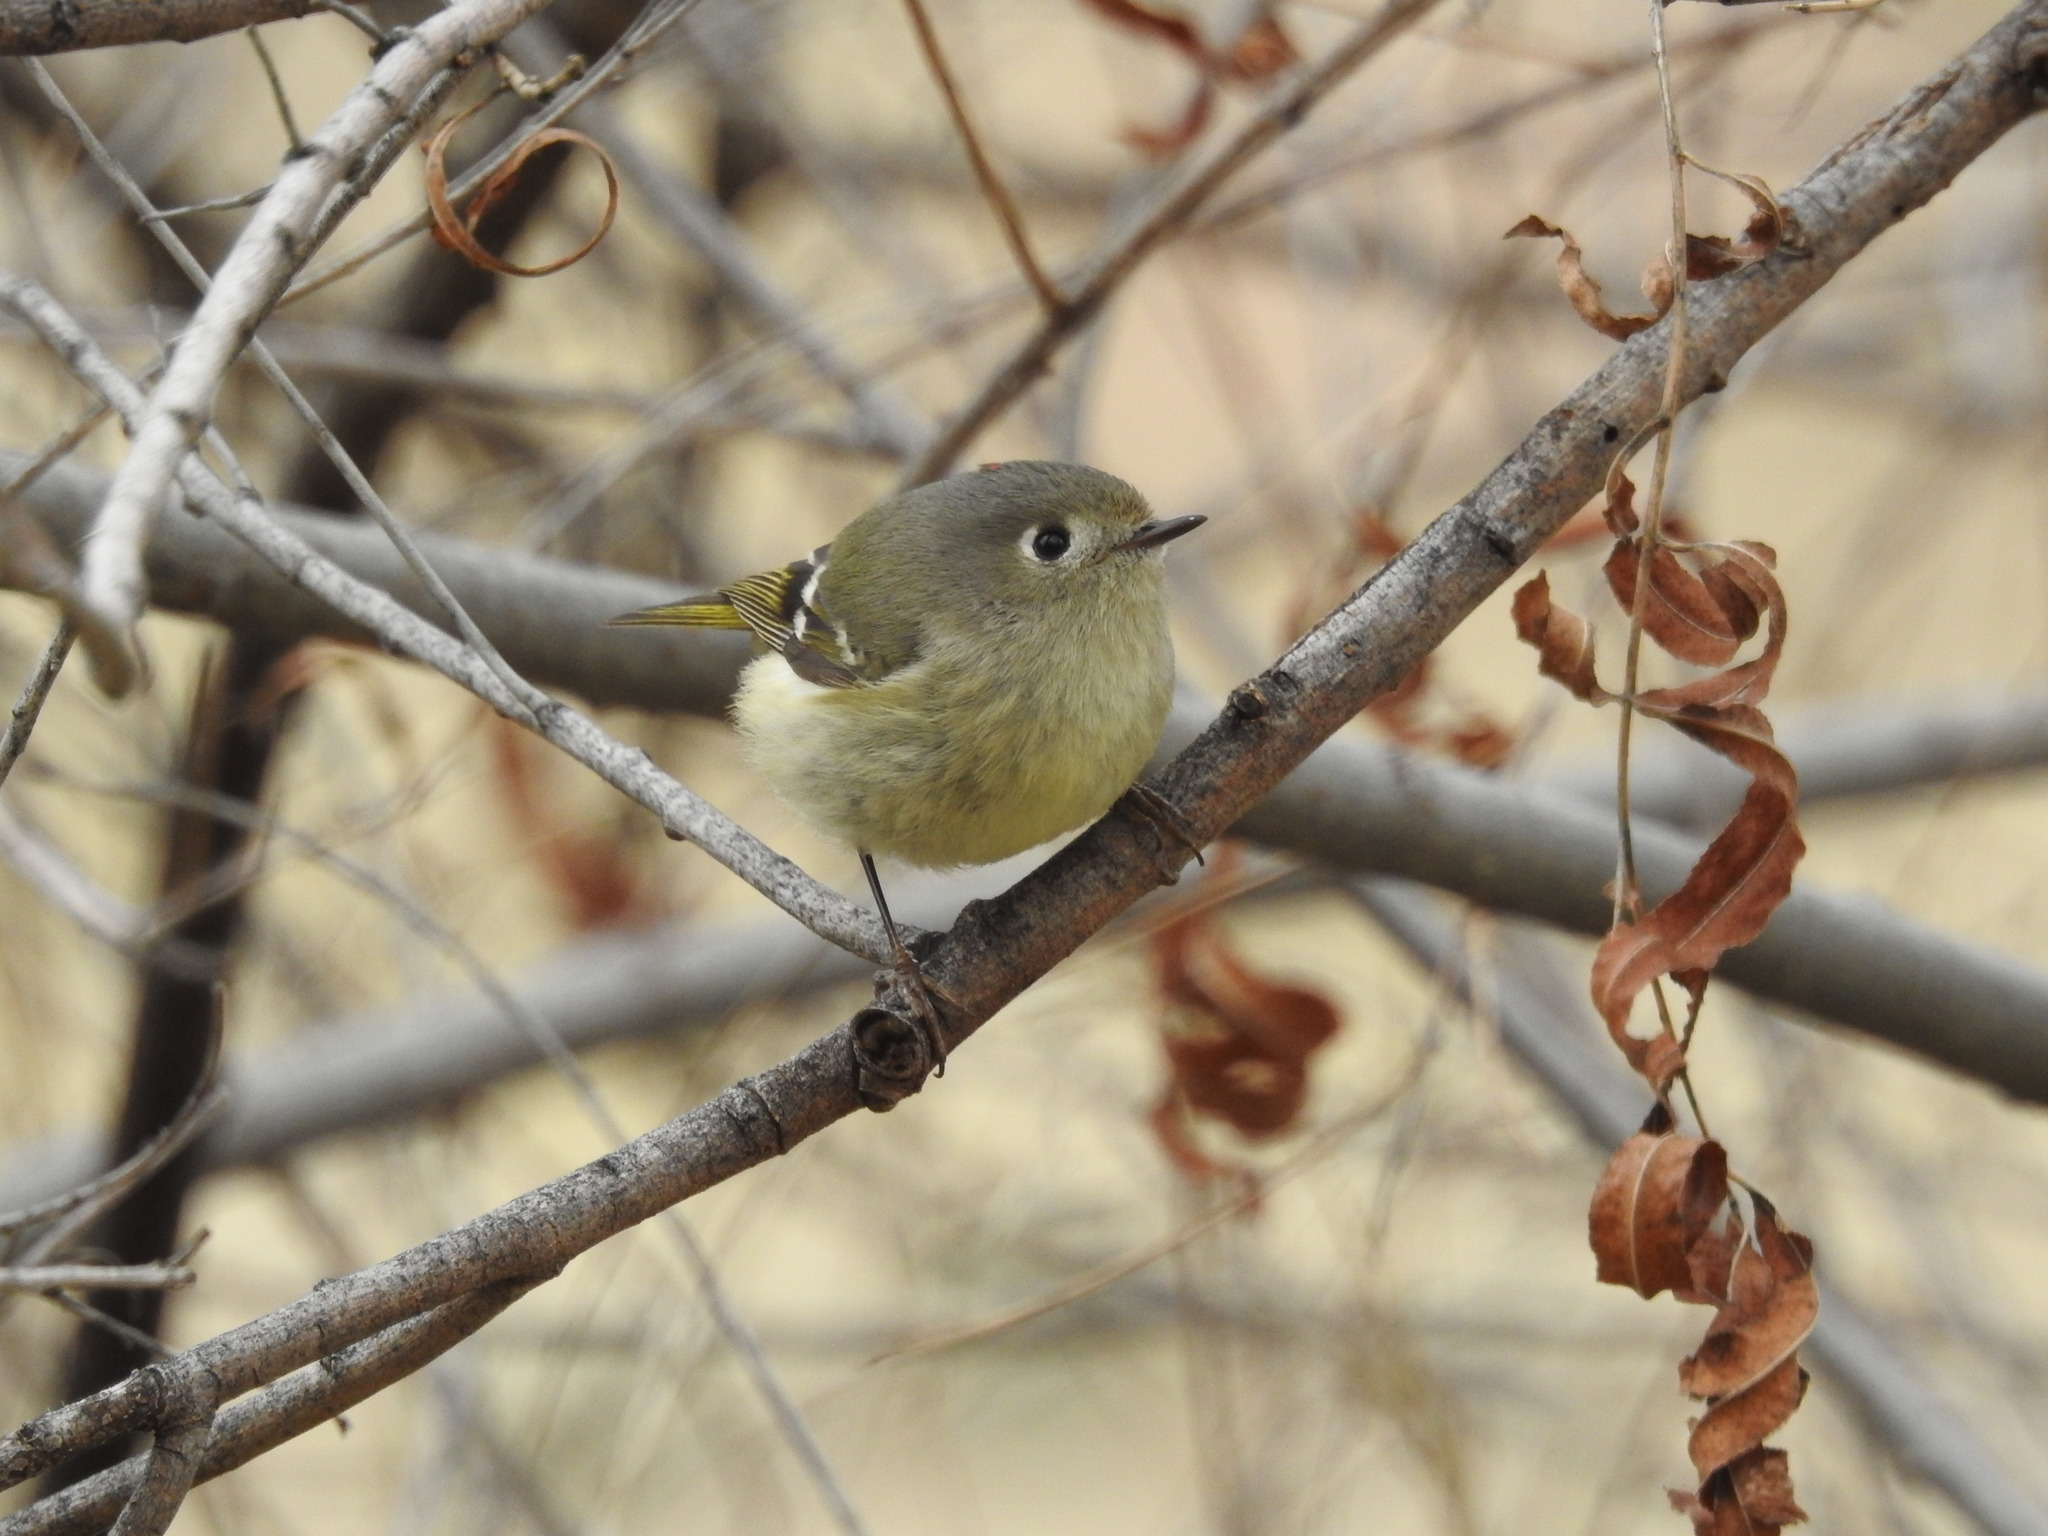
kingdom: Animalia
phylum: Chordata
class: Aves
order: Passeriformes
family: Regulidae
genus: Regulus
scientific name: Regulus calendula
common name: Ruby-crowned kinglet
